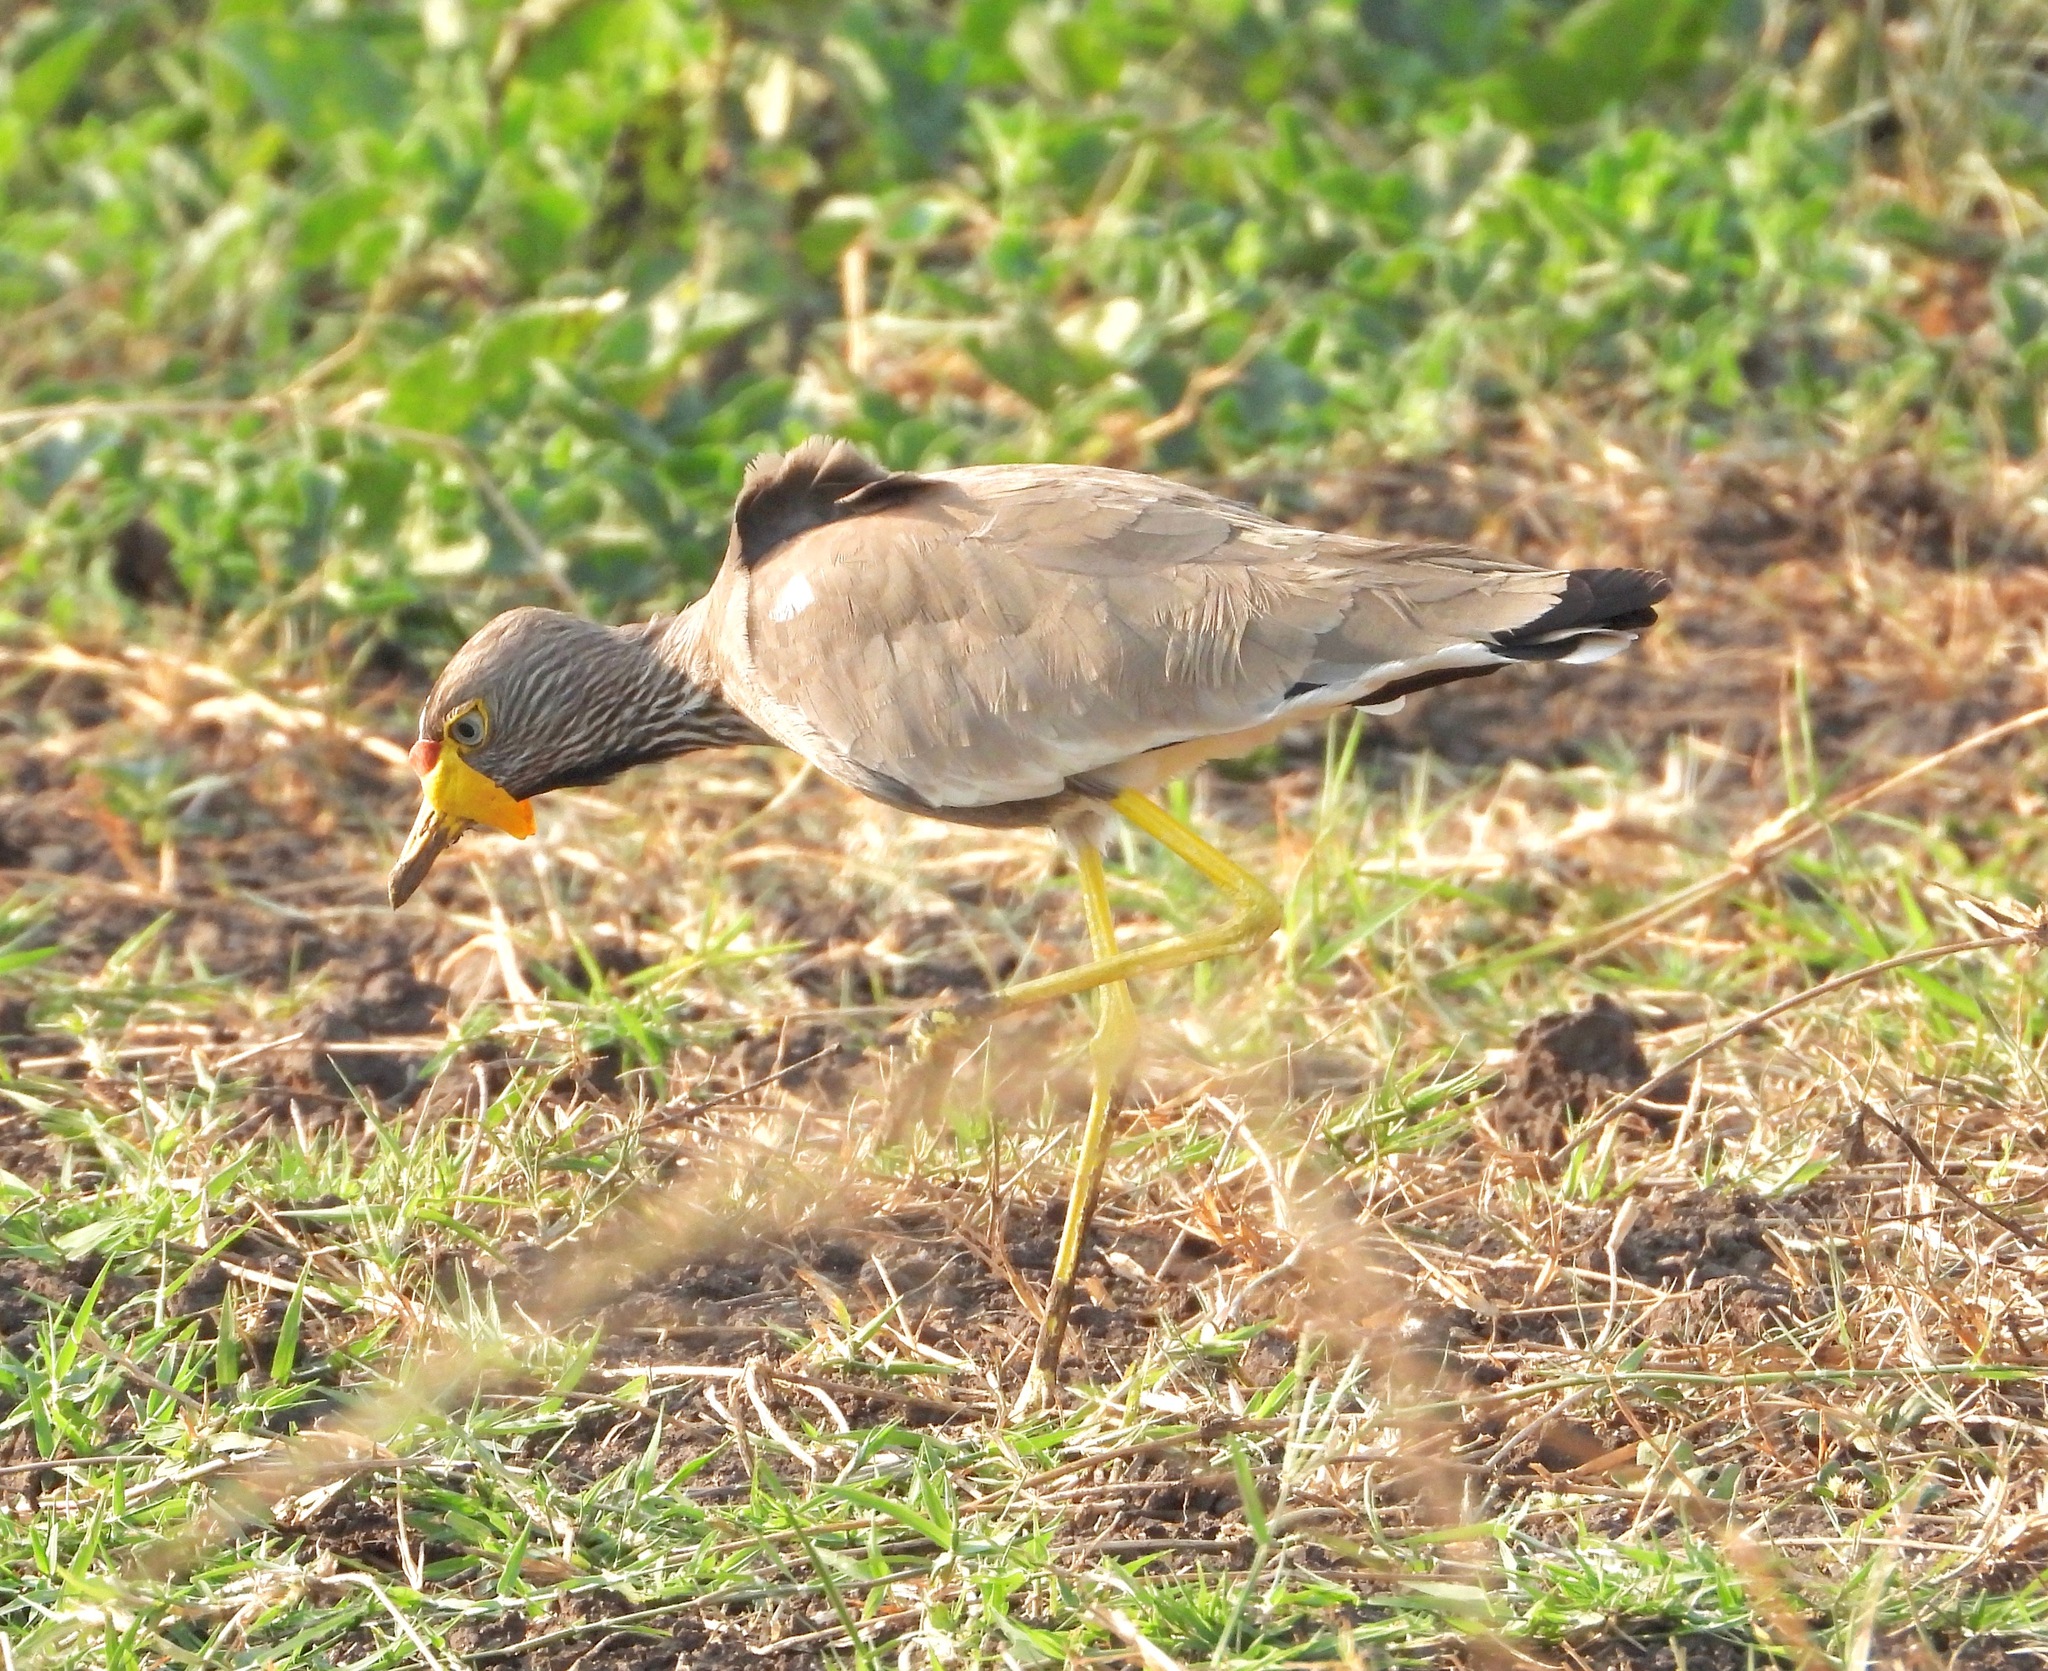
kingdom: Animalia
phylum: Chordata
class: Aves
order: Charadriiformes
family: Charadriidae
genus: Vanellus
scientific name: Vanellus senegallus
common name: African wattled lapwing
